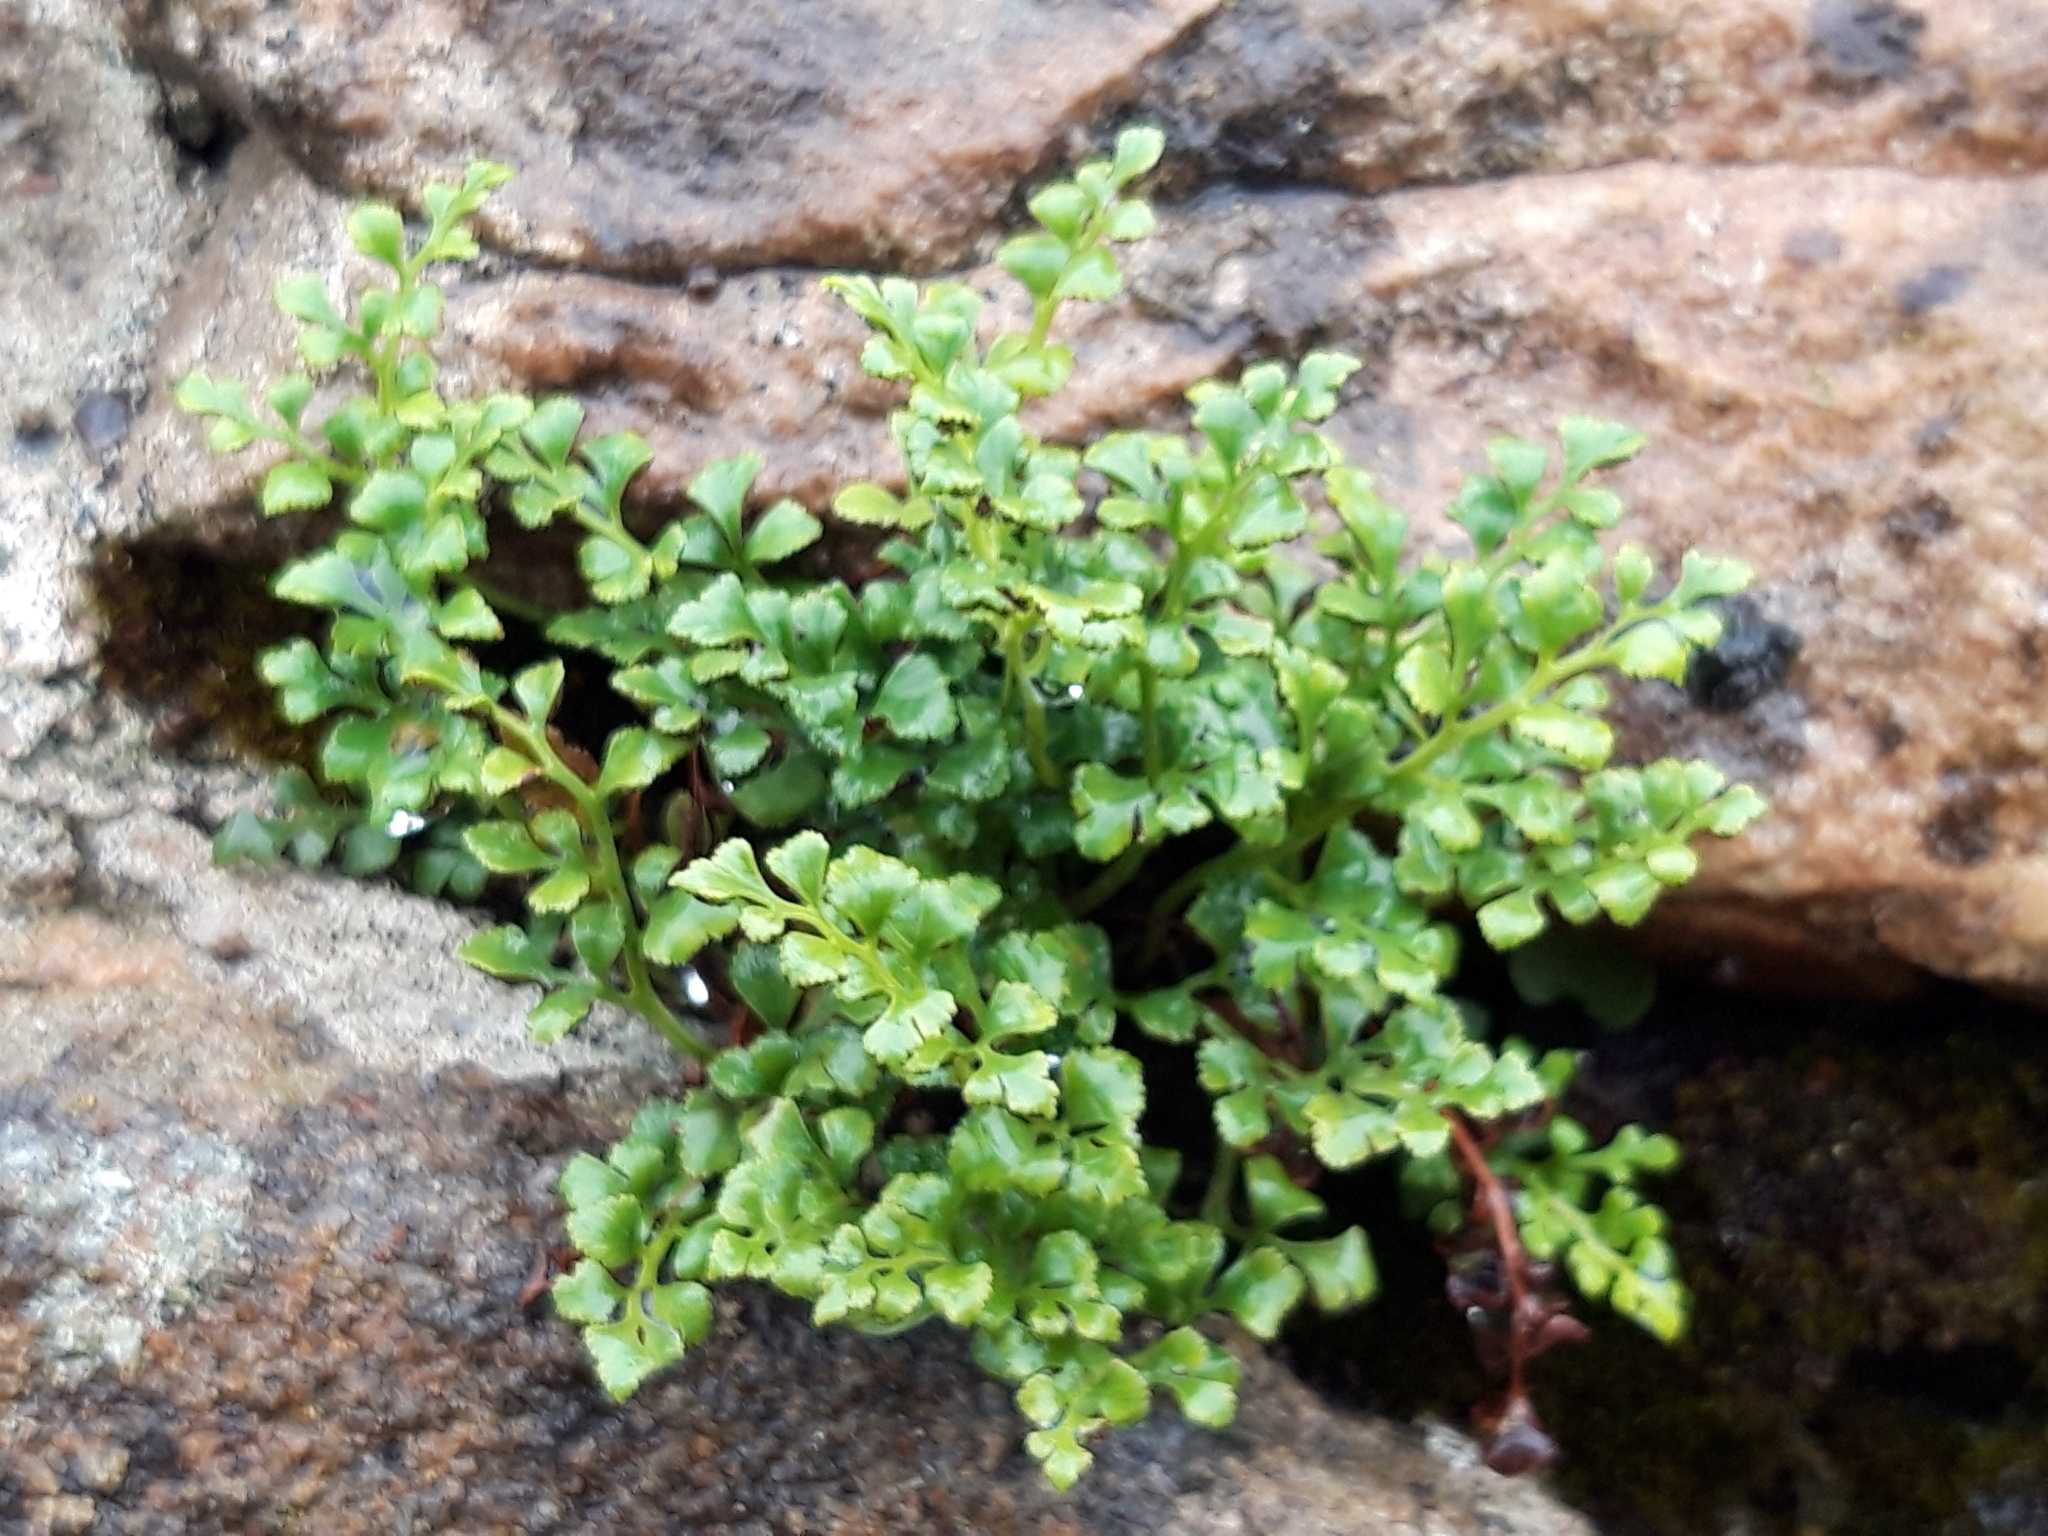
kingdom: Plantae
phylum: Tracheophyta
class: Polypodiopsida
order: Polypodiales
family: Aspleniaceae
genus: Asplenium
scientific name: Asplenium ruta-muraria
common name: Wall-rue
